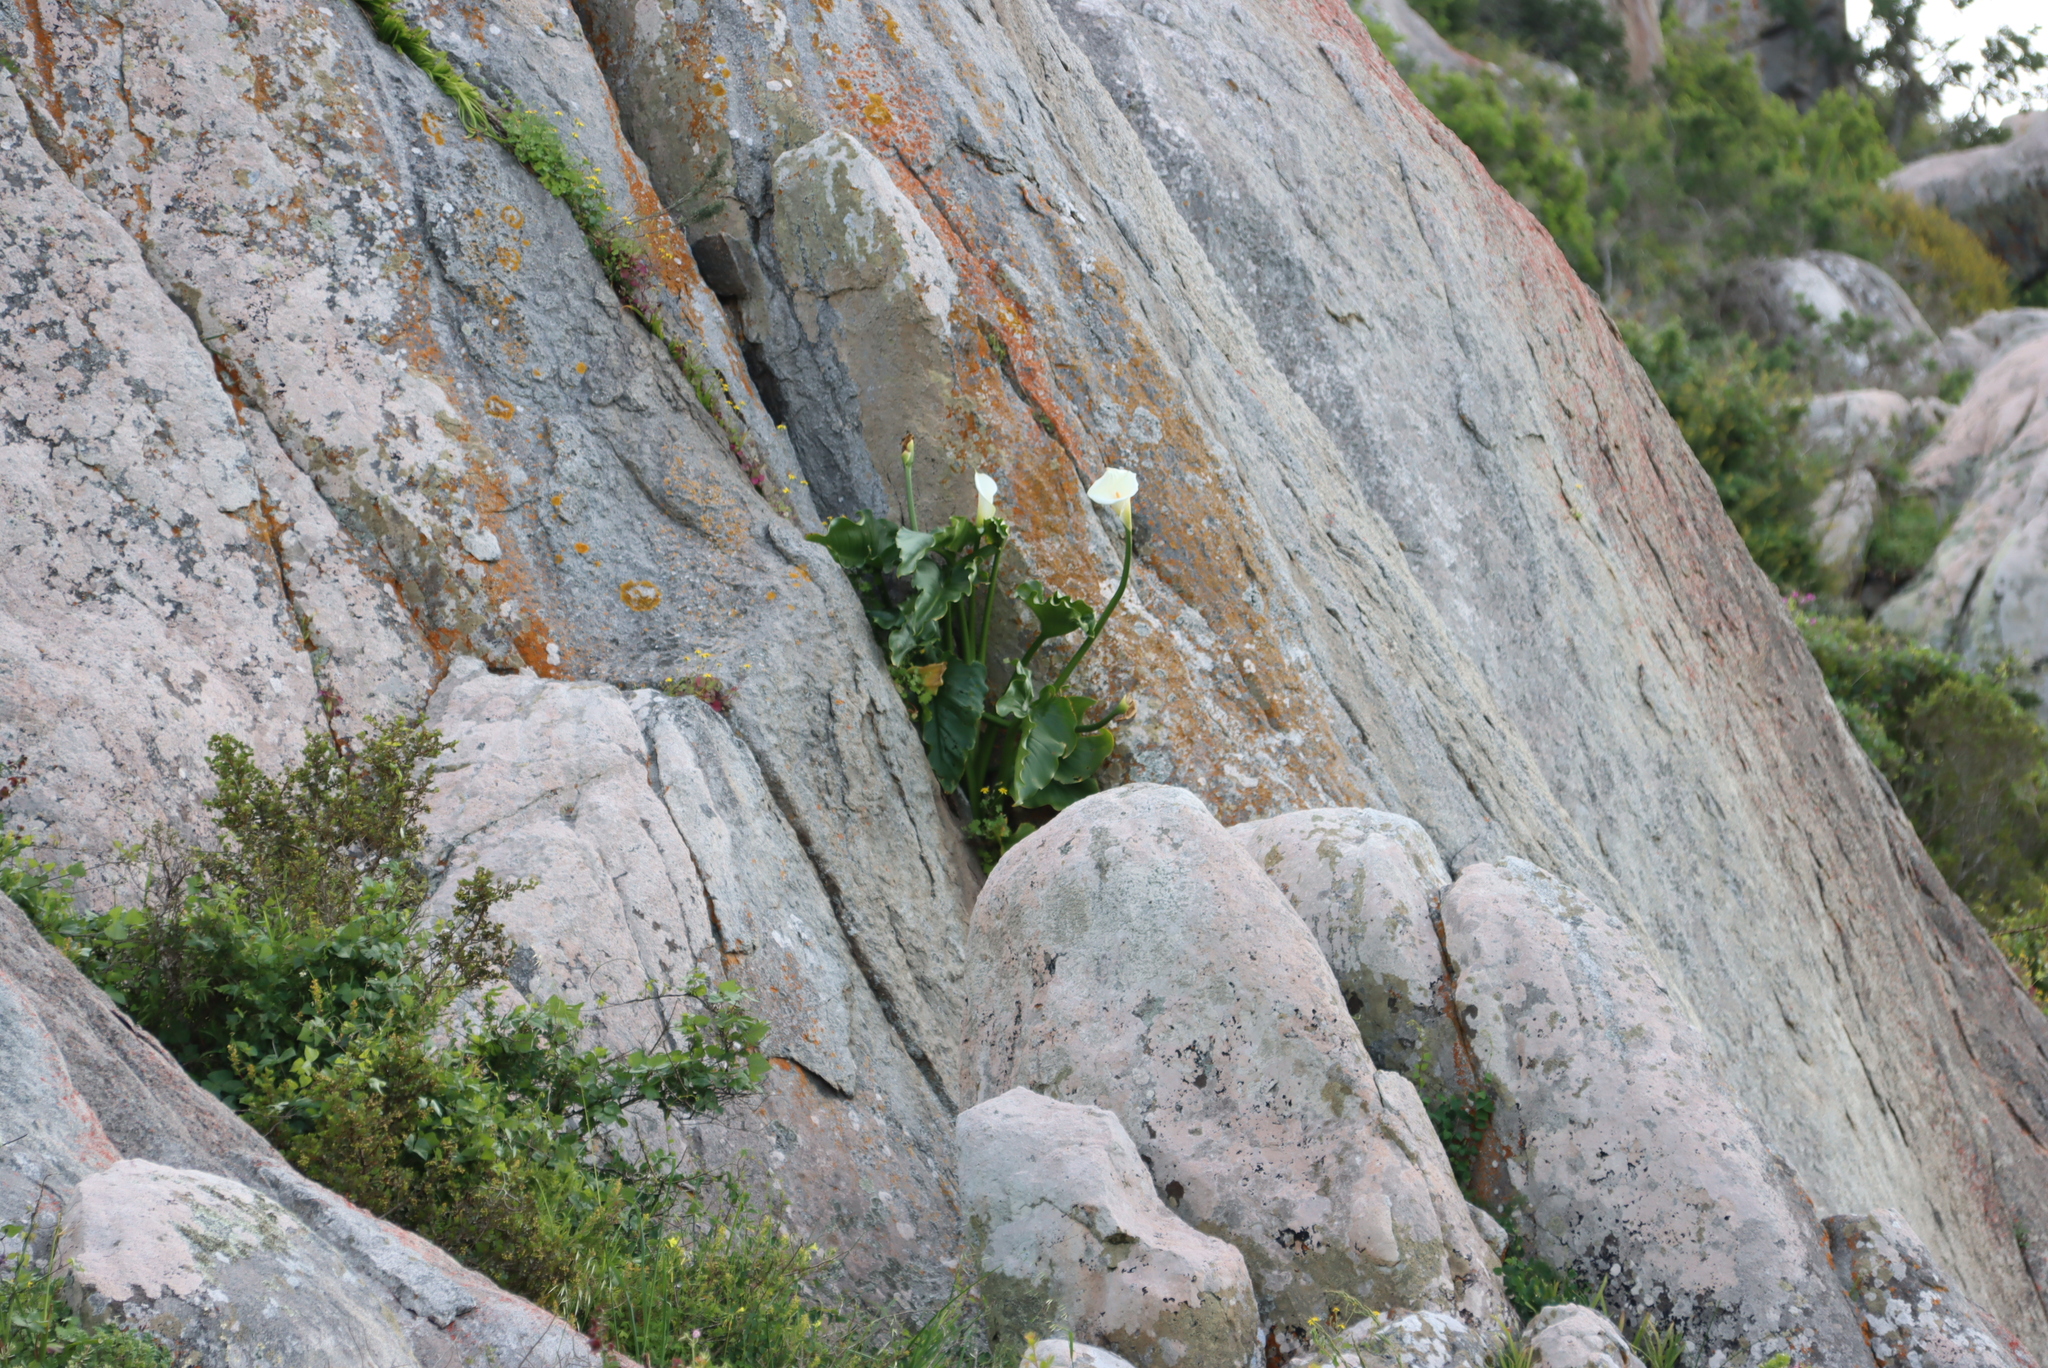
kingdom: Plantae
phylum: Tracheophyta
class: Liliopsida
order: Alismatales
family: Araceae
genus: Zantedeschia
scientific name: Zantedeschia aethiopica
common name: Altar-lily
